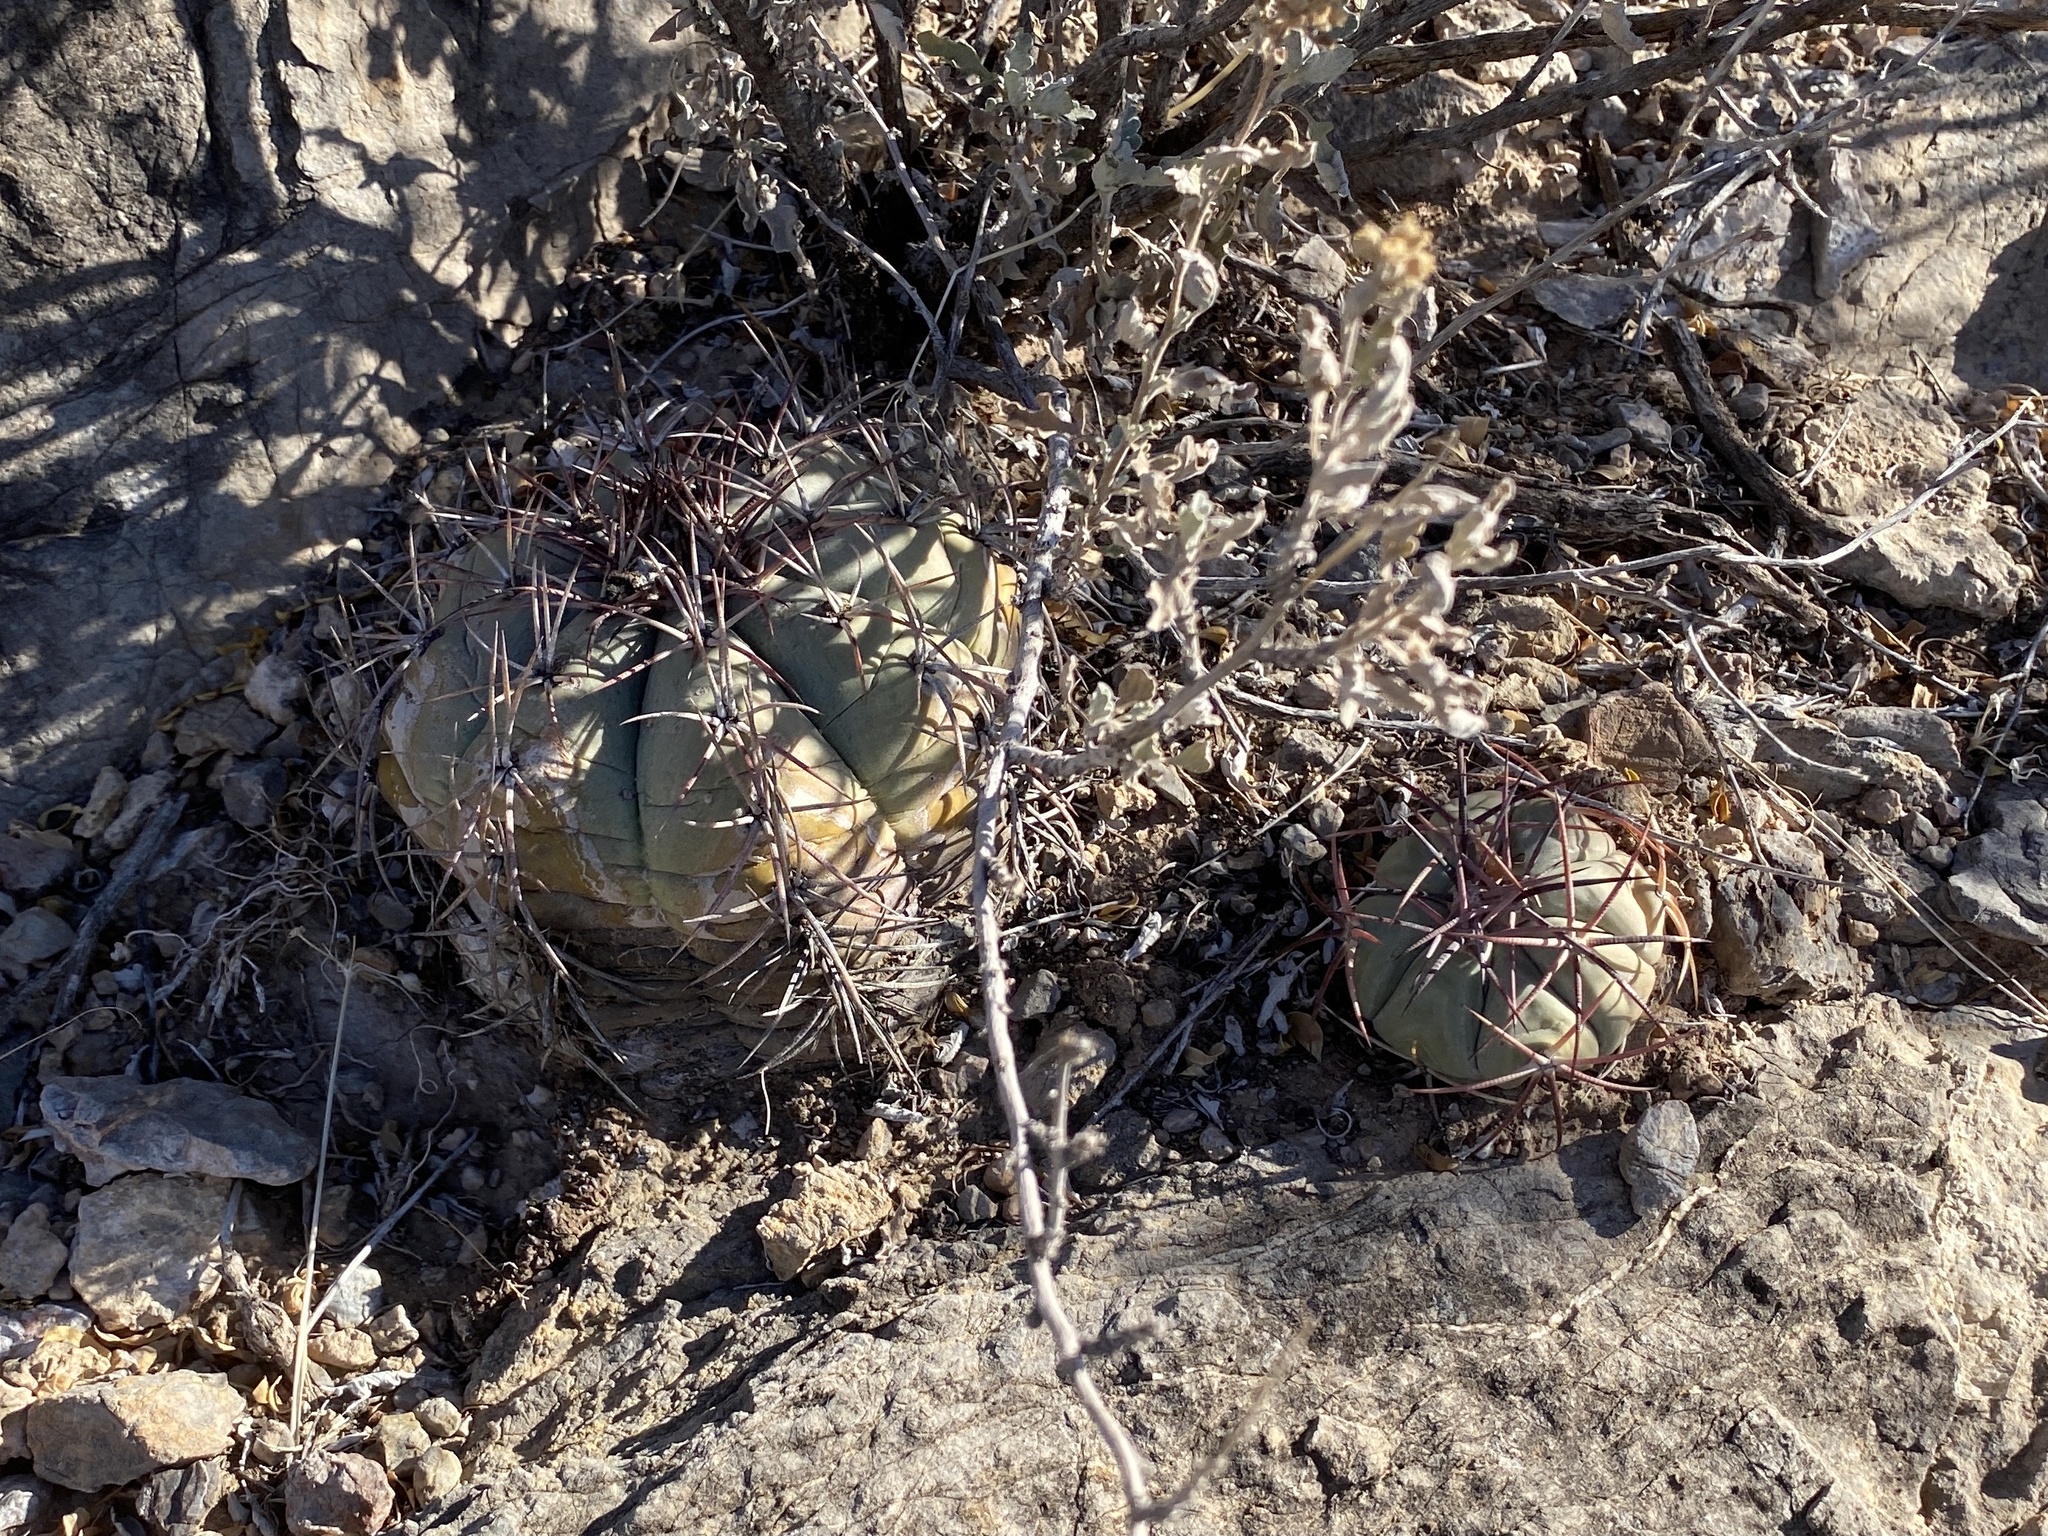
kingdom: Plantae
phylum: Tracheophyta
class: Magnoliopsida
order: Caryophyllales
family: Cactaceae
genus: Echinocactus
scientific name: Echinocactus horizonthalonius
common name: Devilshead
